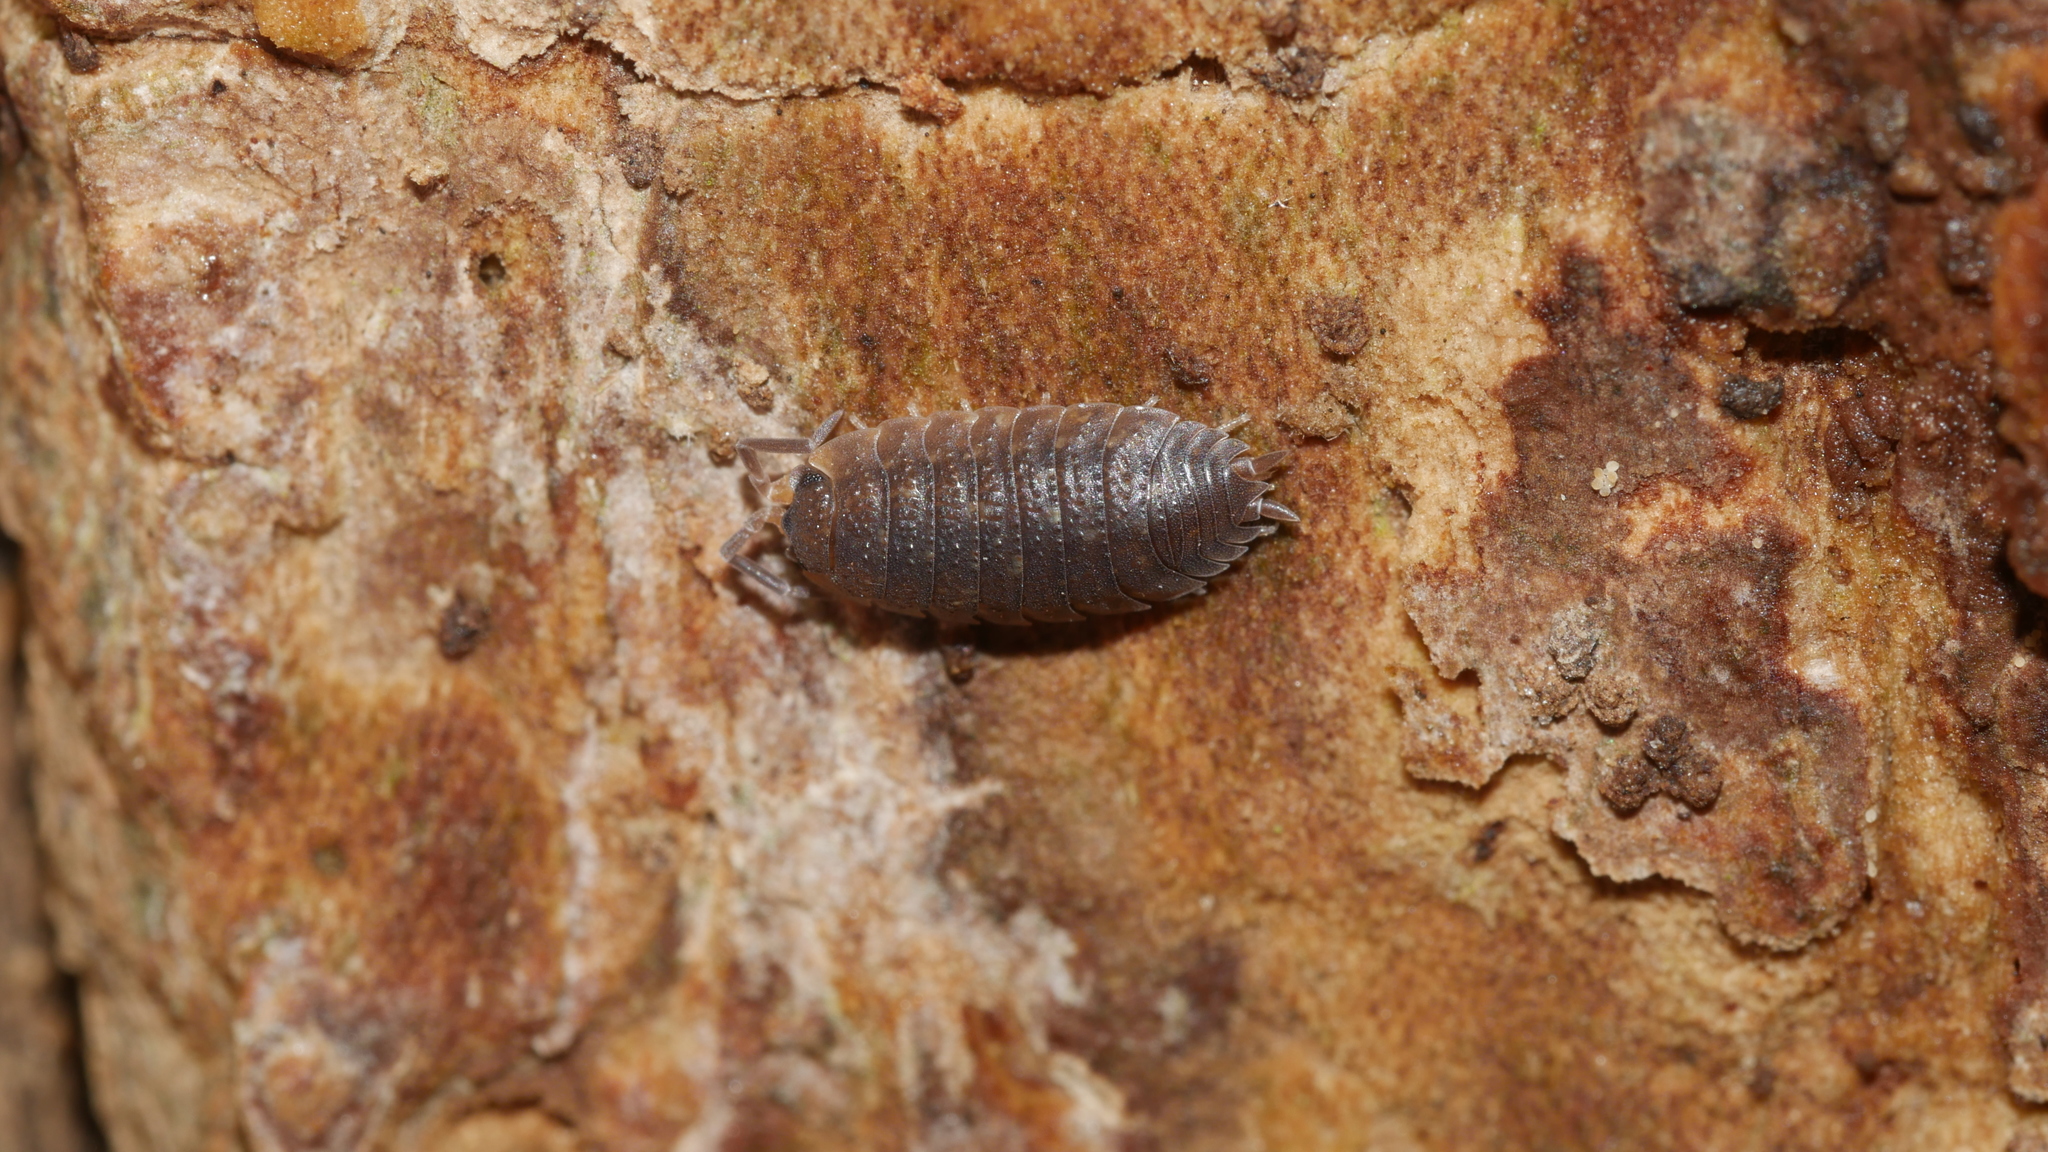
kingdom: Animalia
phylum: Arthropoda
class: Malacostraca
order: Isopoda
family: Porcellionidae
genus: Porcellio
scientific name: Porcellio scaber
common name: Common rough woodlouse
